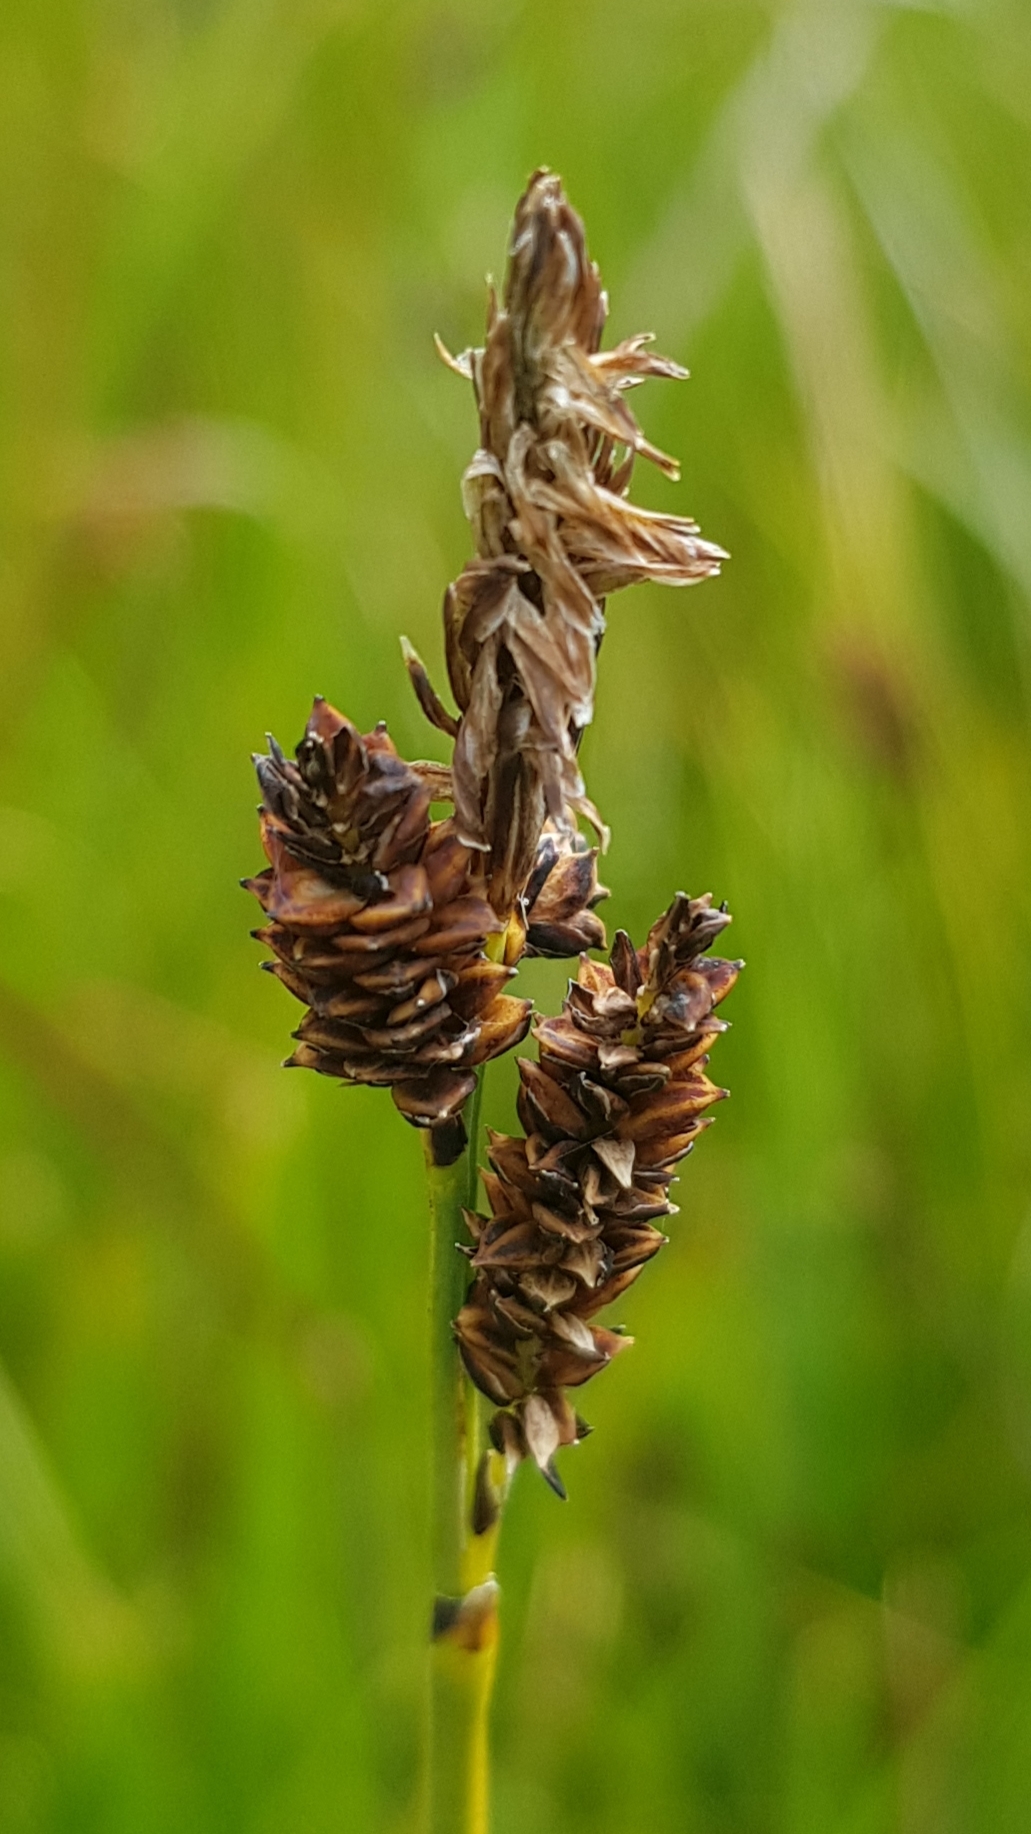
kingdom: Plantae
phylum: Tracheophyta
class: Liliopsida
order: Poales
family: Cyperaceae
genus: Carex
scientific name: Carex bigelowii
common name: Stiff sedge
